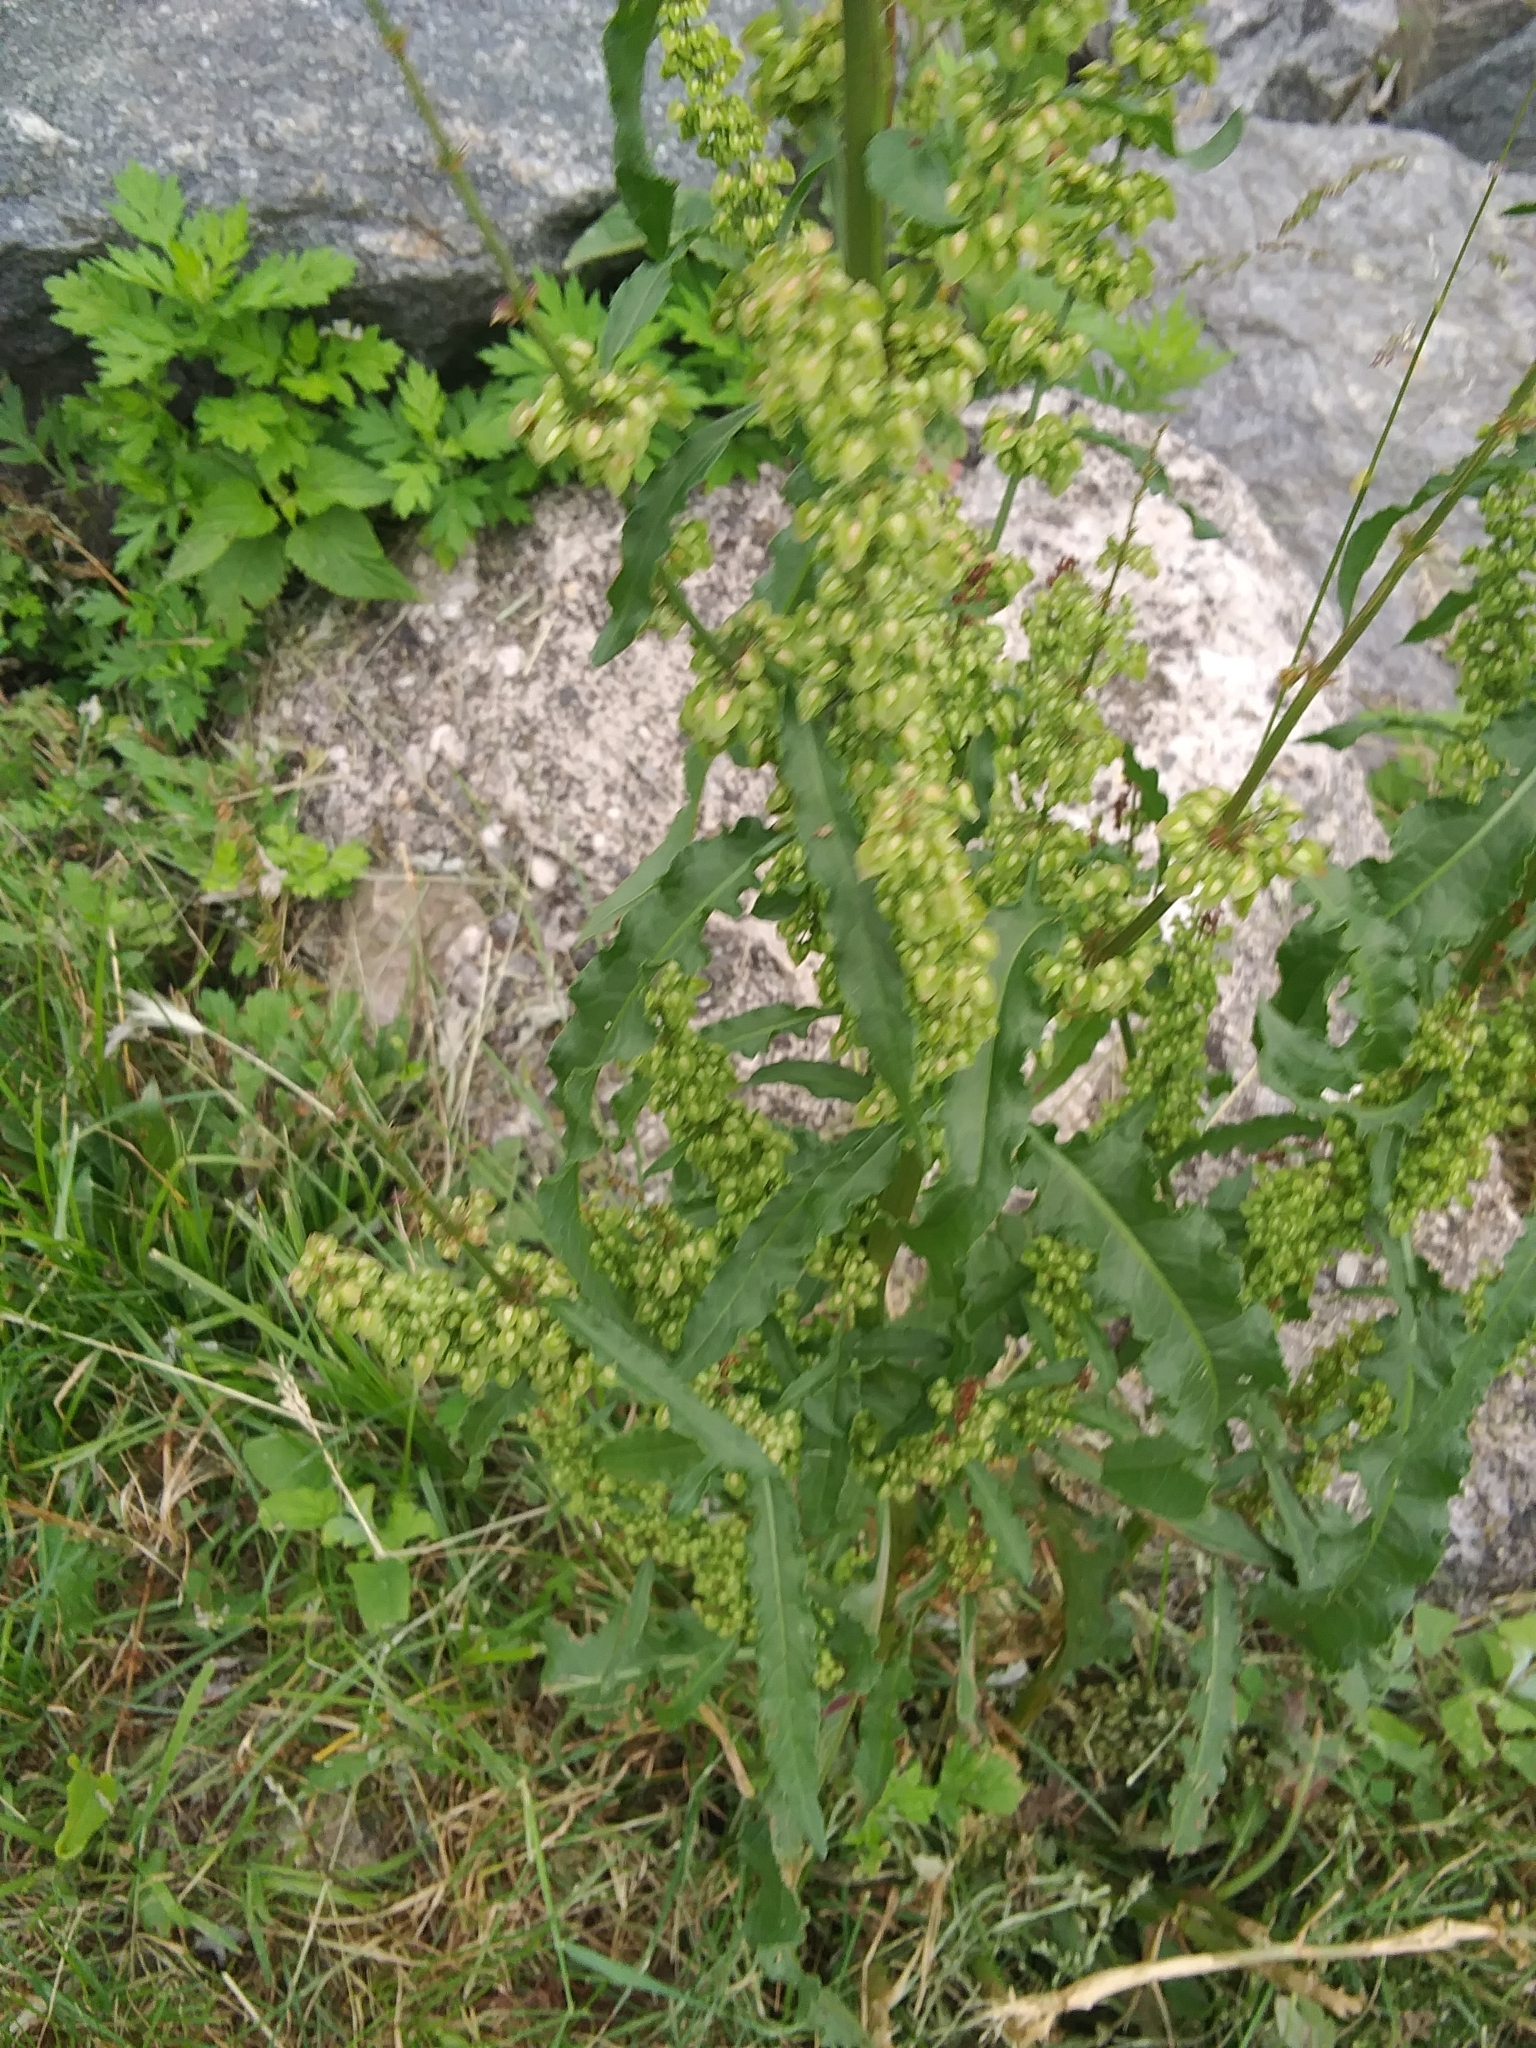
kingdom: Plantae
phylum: Tracheophyta
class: Magnoliopsida
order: Caryophyllales
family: Polygonaceae
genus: Rumex
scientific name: Rumex crispus
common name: Curled dock
